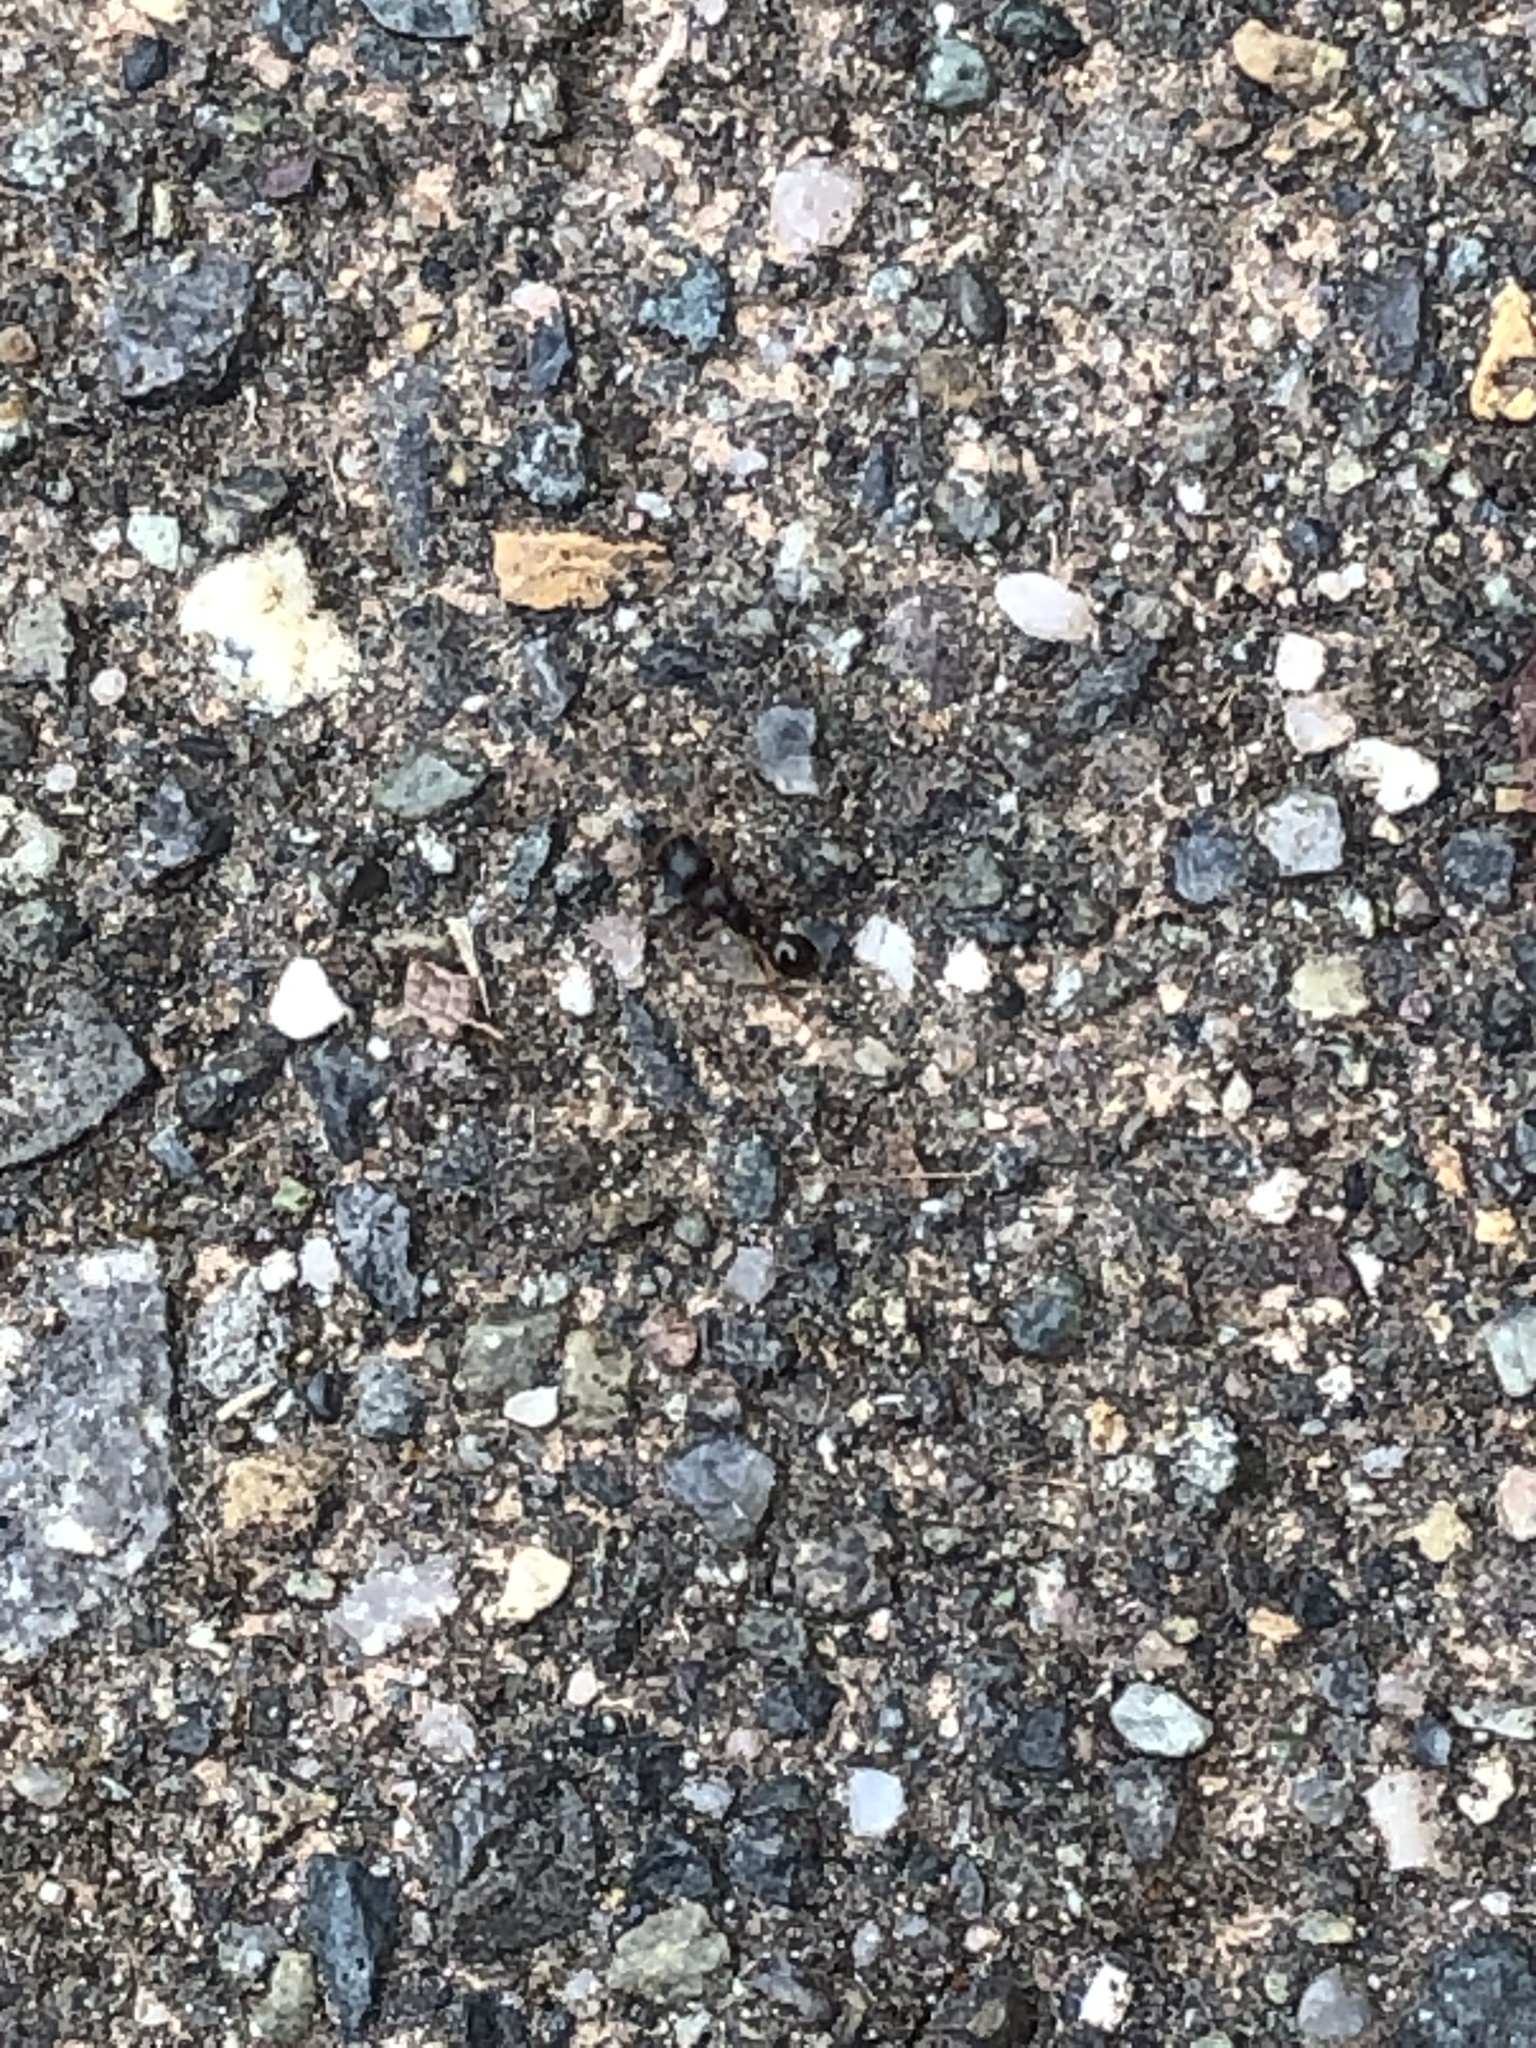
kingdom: Animalia
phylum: Arthropoda
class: Insecta
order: Hymenoptera
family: Formicidae
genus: Tetramorium
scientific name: Tetramorium immigrans
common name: Pavement ant
